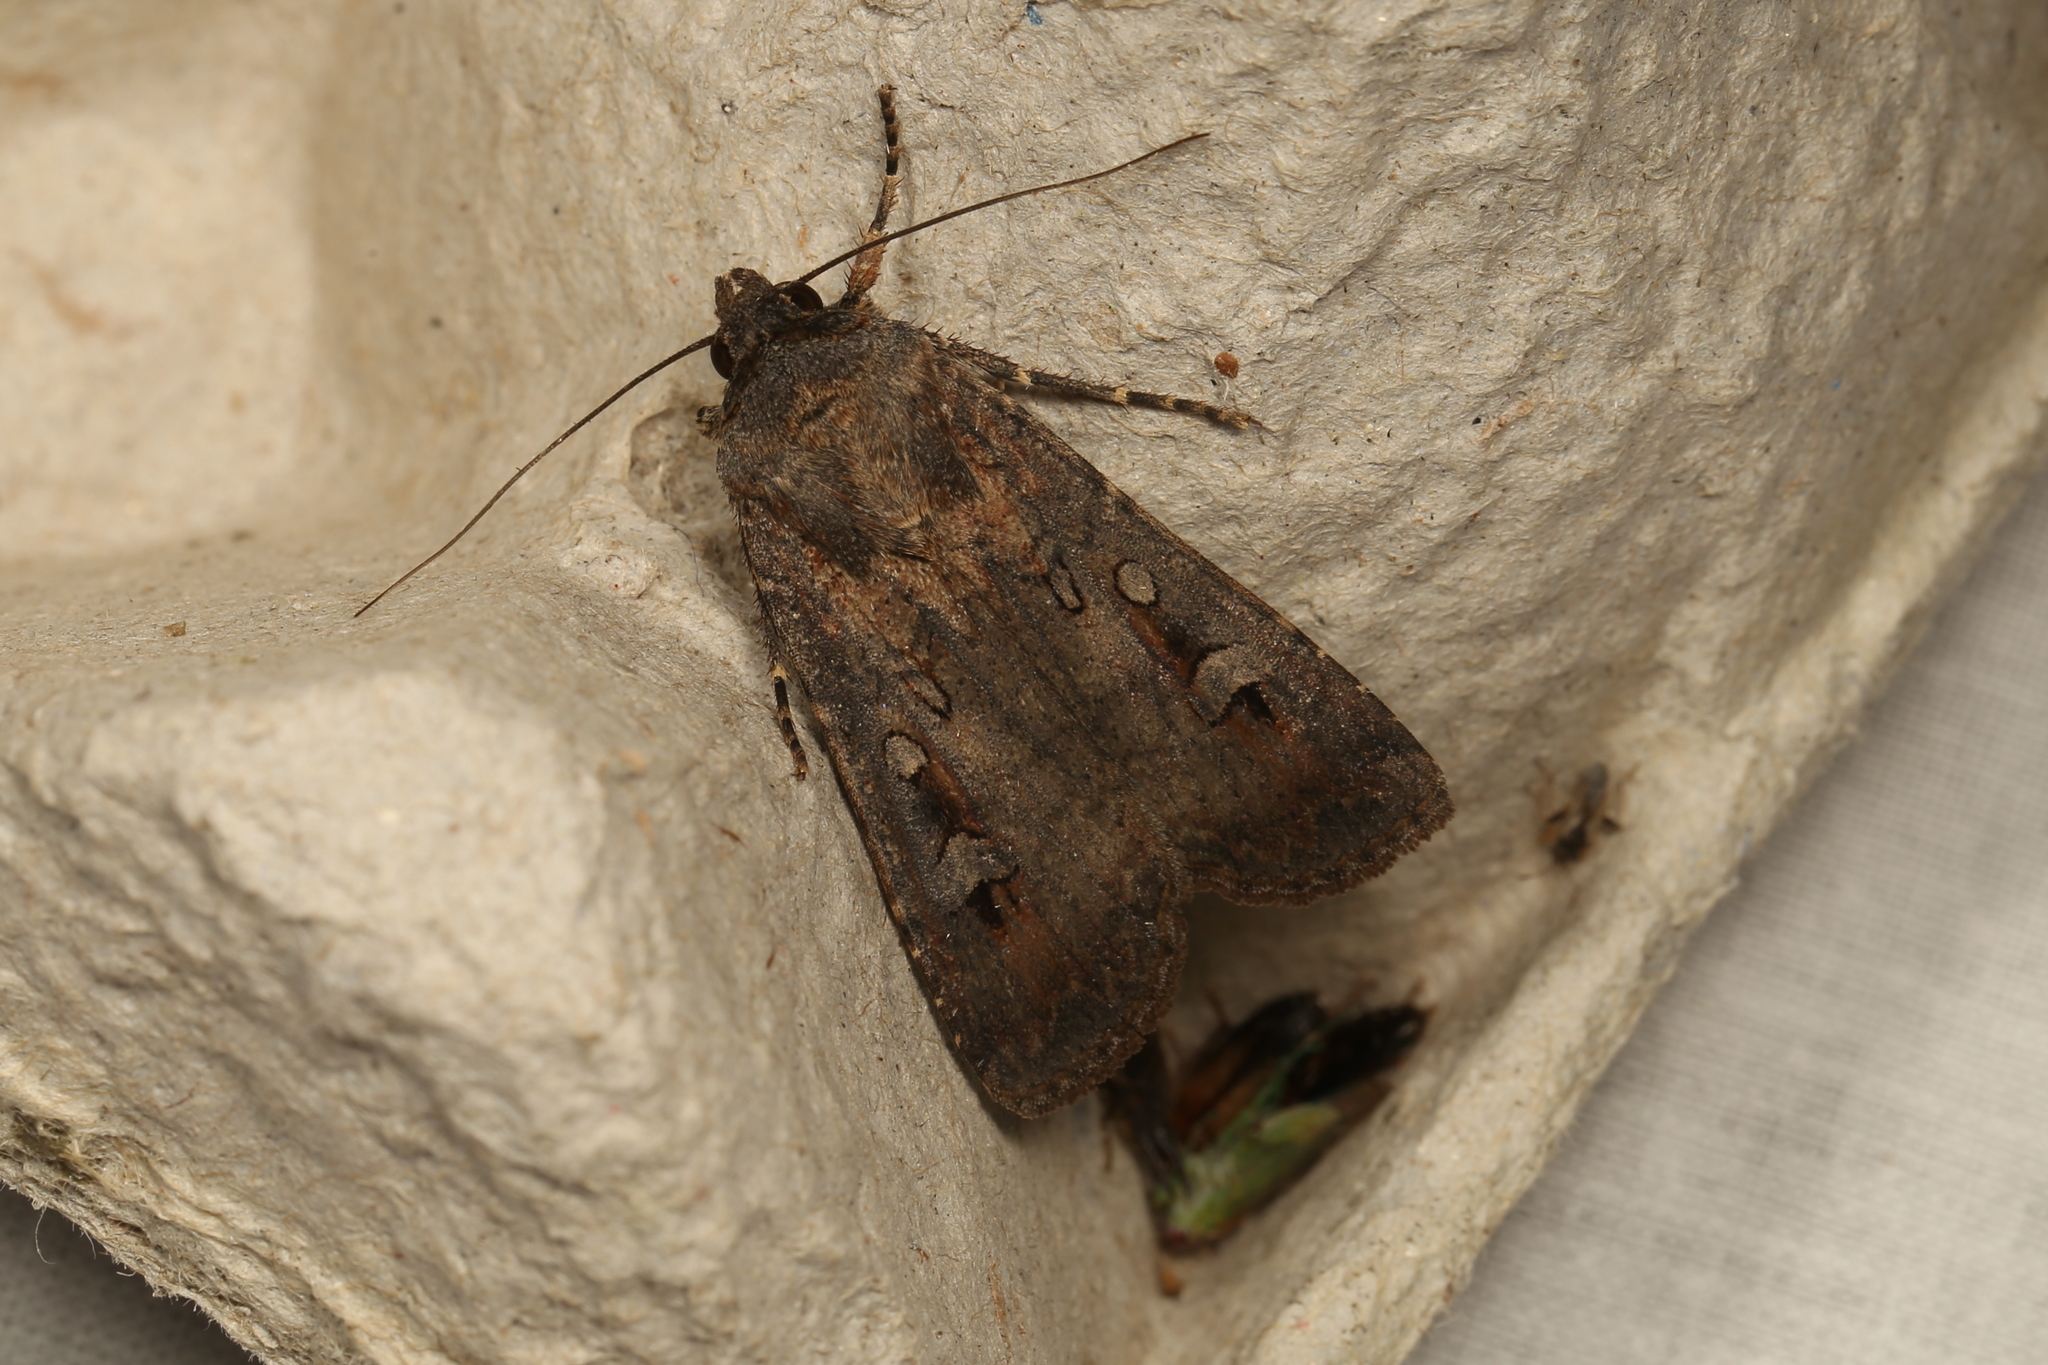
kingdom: Animalia
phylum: Arthropoda
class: Insecta
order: Lepidoptera
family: Noctuidae
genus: Agrotis
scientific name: Agrotis infusa
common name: Bogong moth
